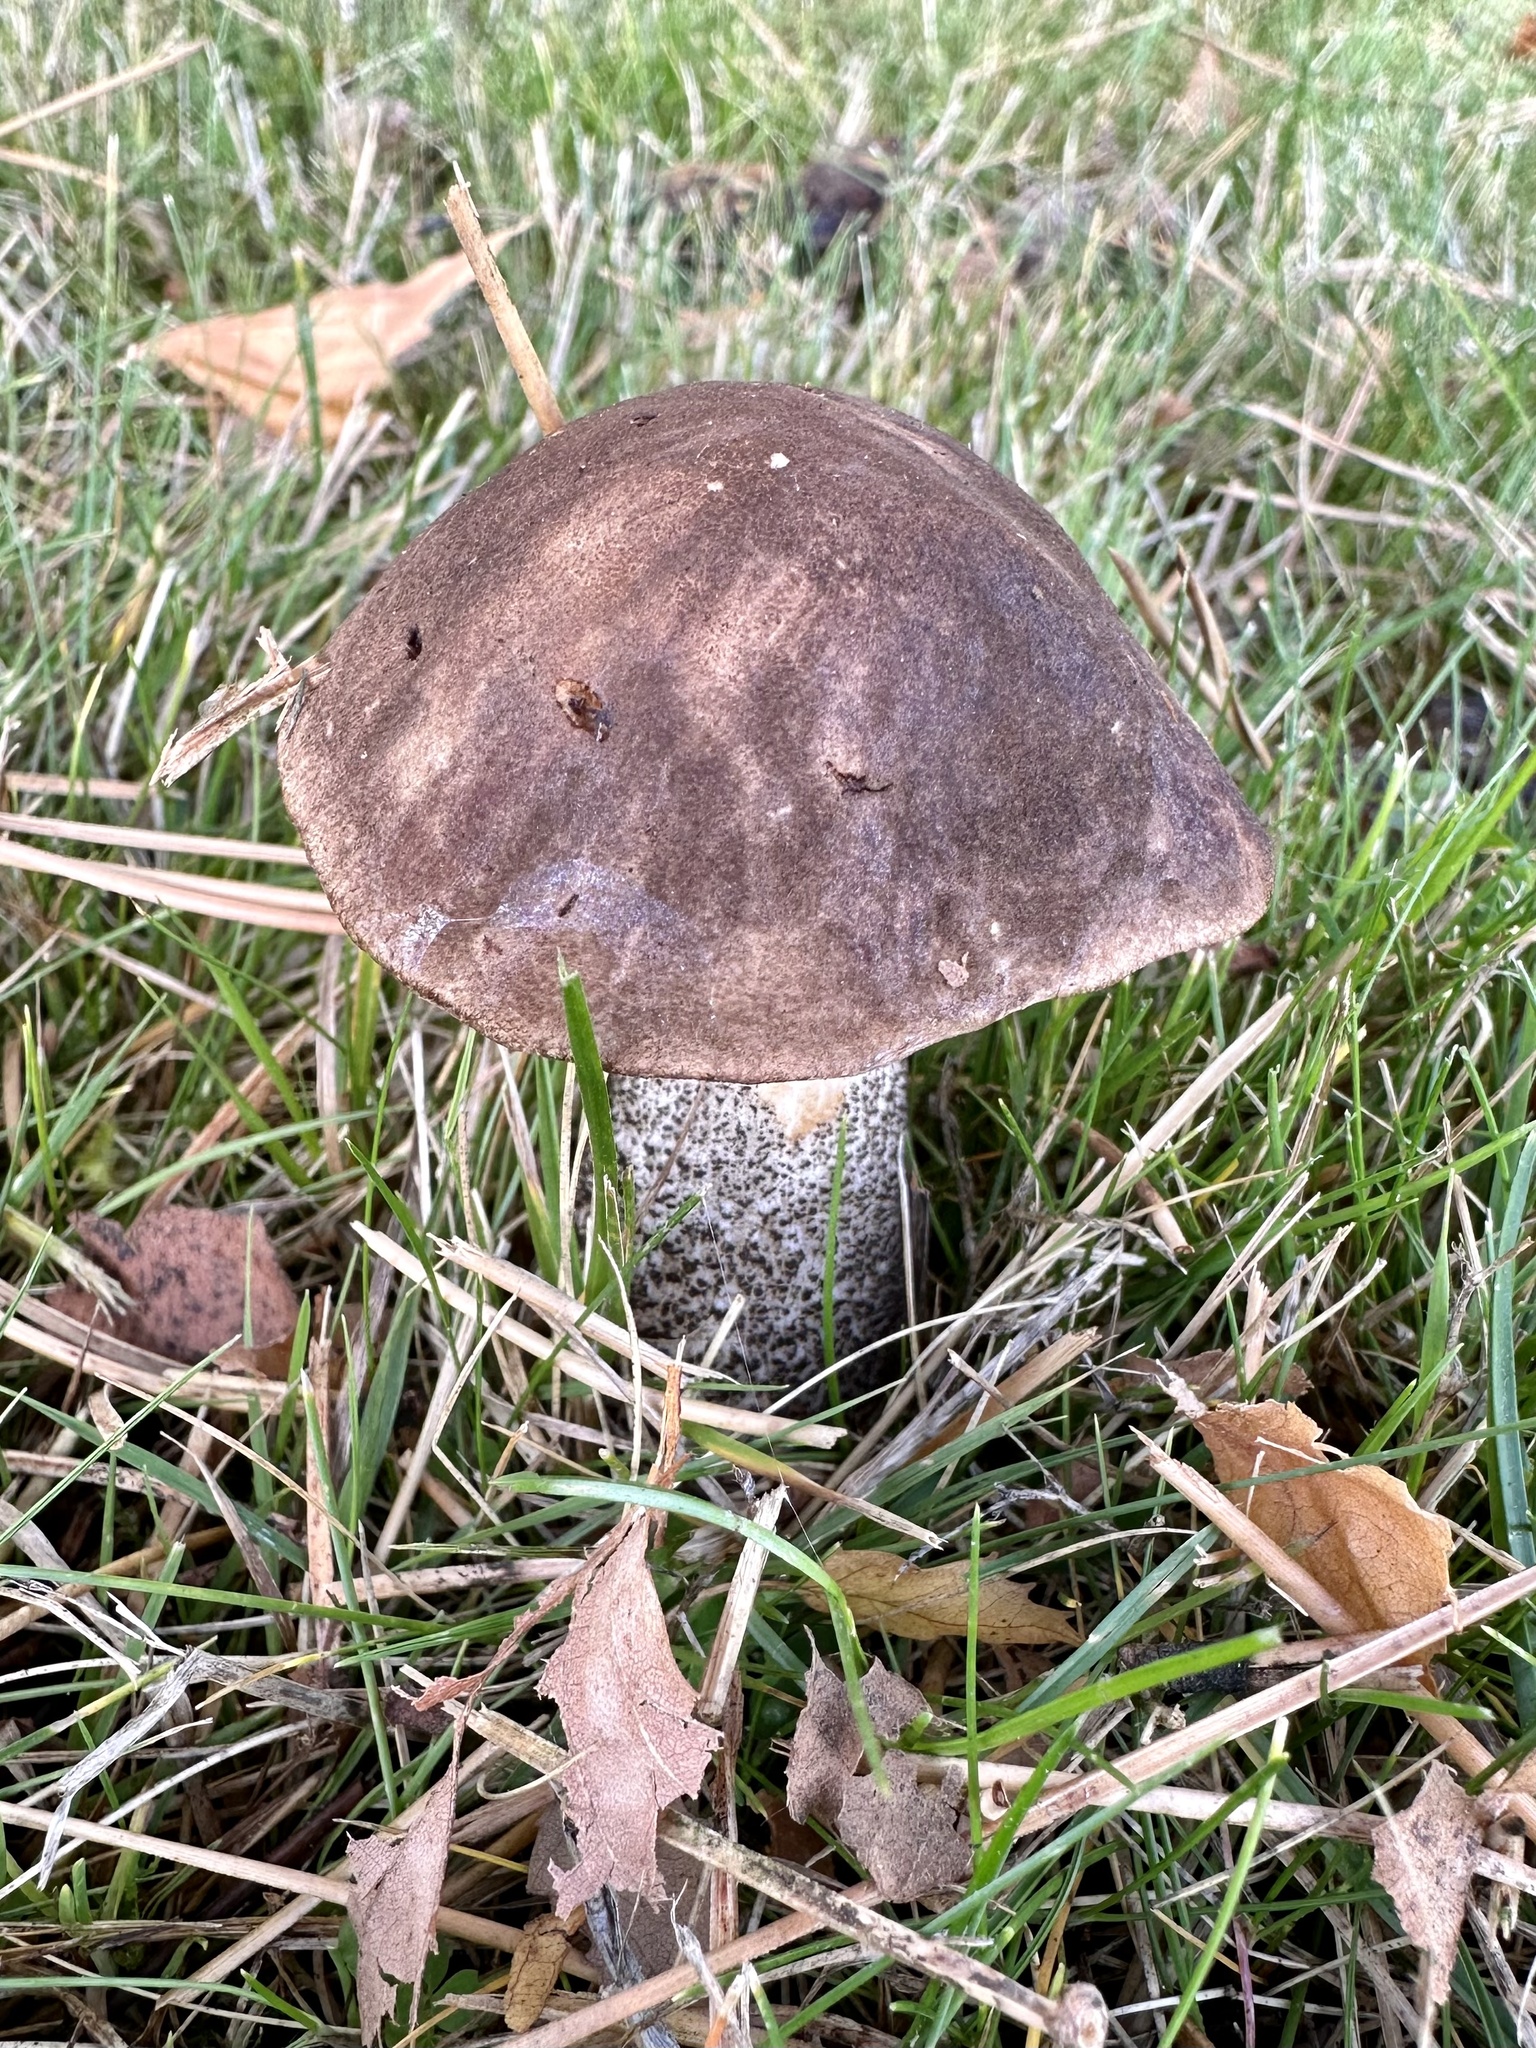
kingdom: Fungi
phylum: Basidiomycota
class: Agaricomycetes
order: Boletales
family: Boletaceae
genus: Leccinum
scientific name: Leccinum scabrum
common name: Blushing bolete
